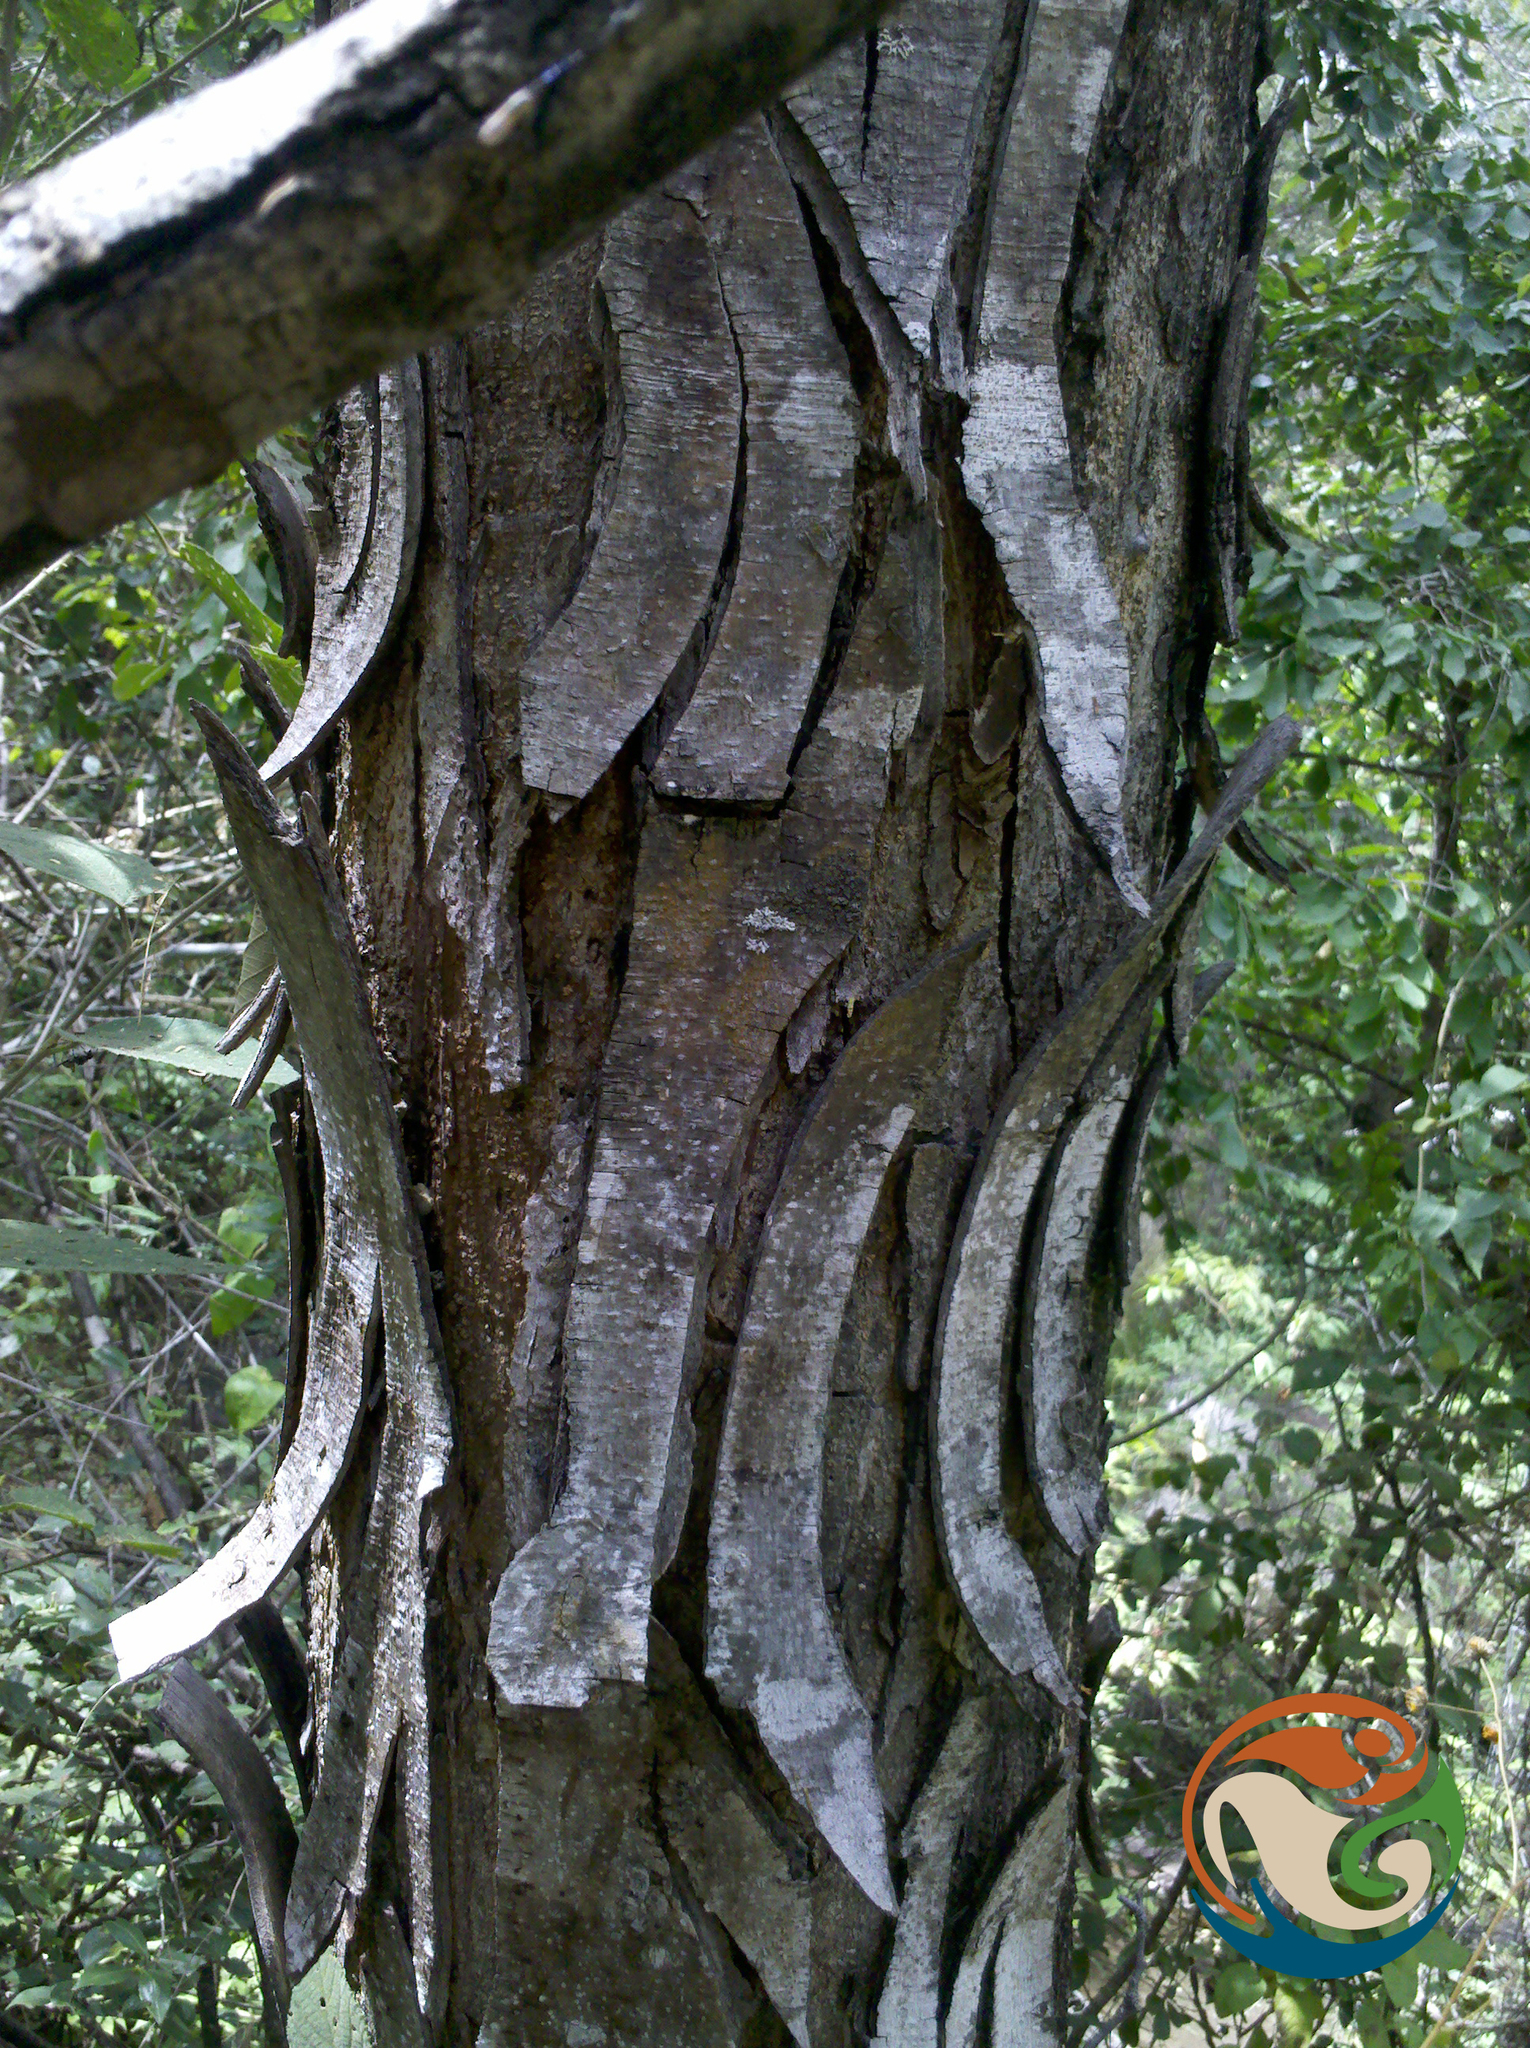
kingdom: Plantae
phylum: Tracheophyta
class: Magnoliopsida
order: Fabales
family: Fabaceae
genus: Lysiloma
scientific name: Lysiloma divaricatum
